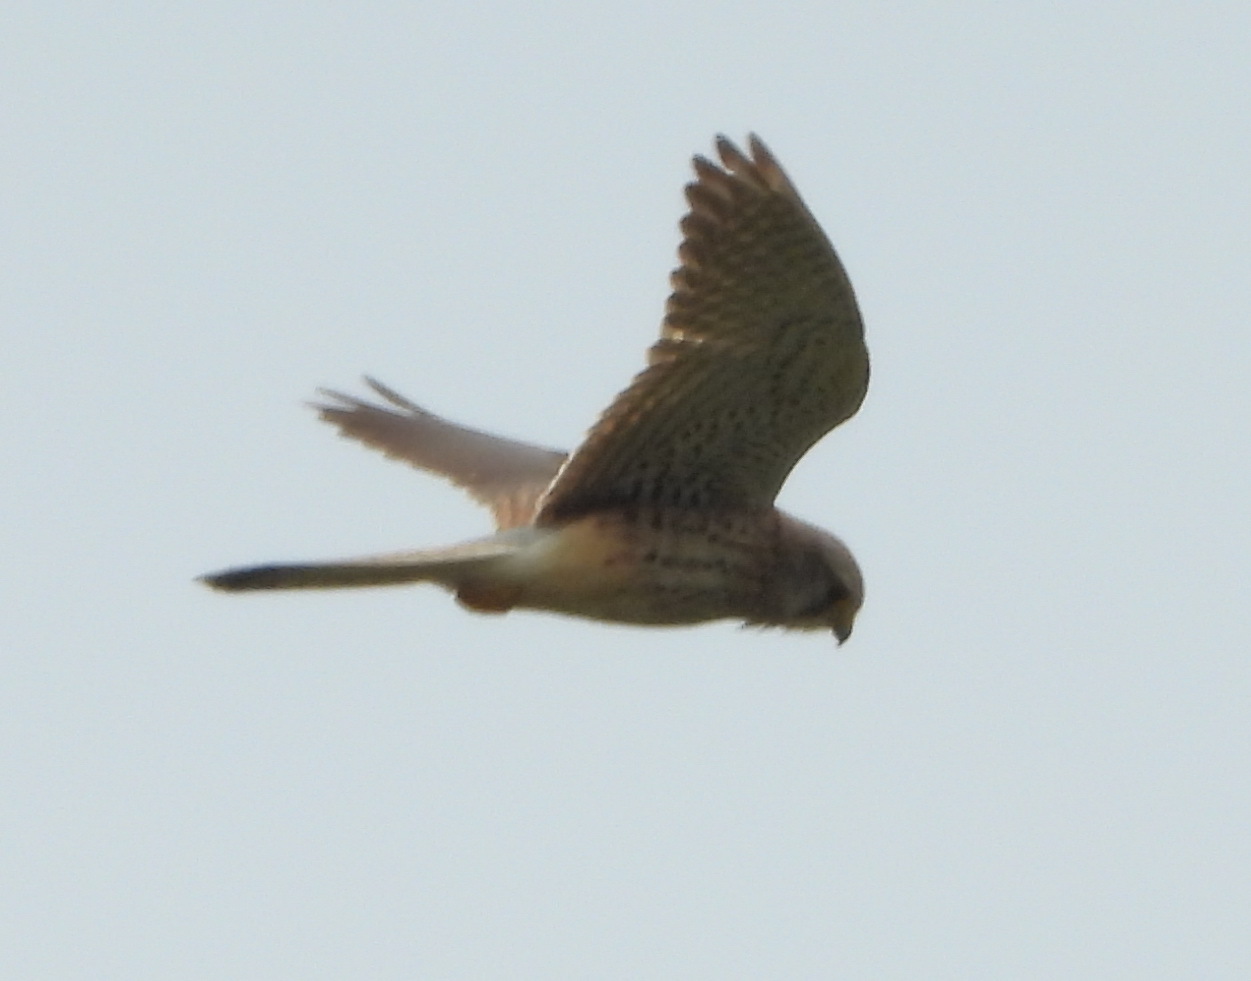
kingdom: Animalia
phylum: Chordata
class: Aves
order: Falconiformes
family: Falconidae
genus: Falco
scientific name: Falco tinnunculus
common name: Common kestrel
